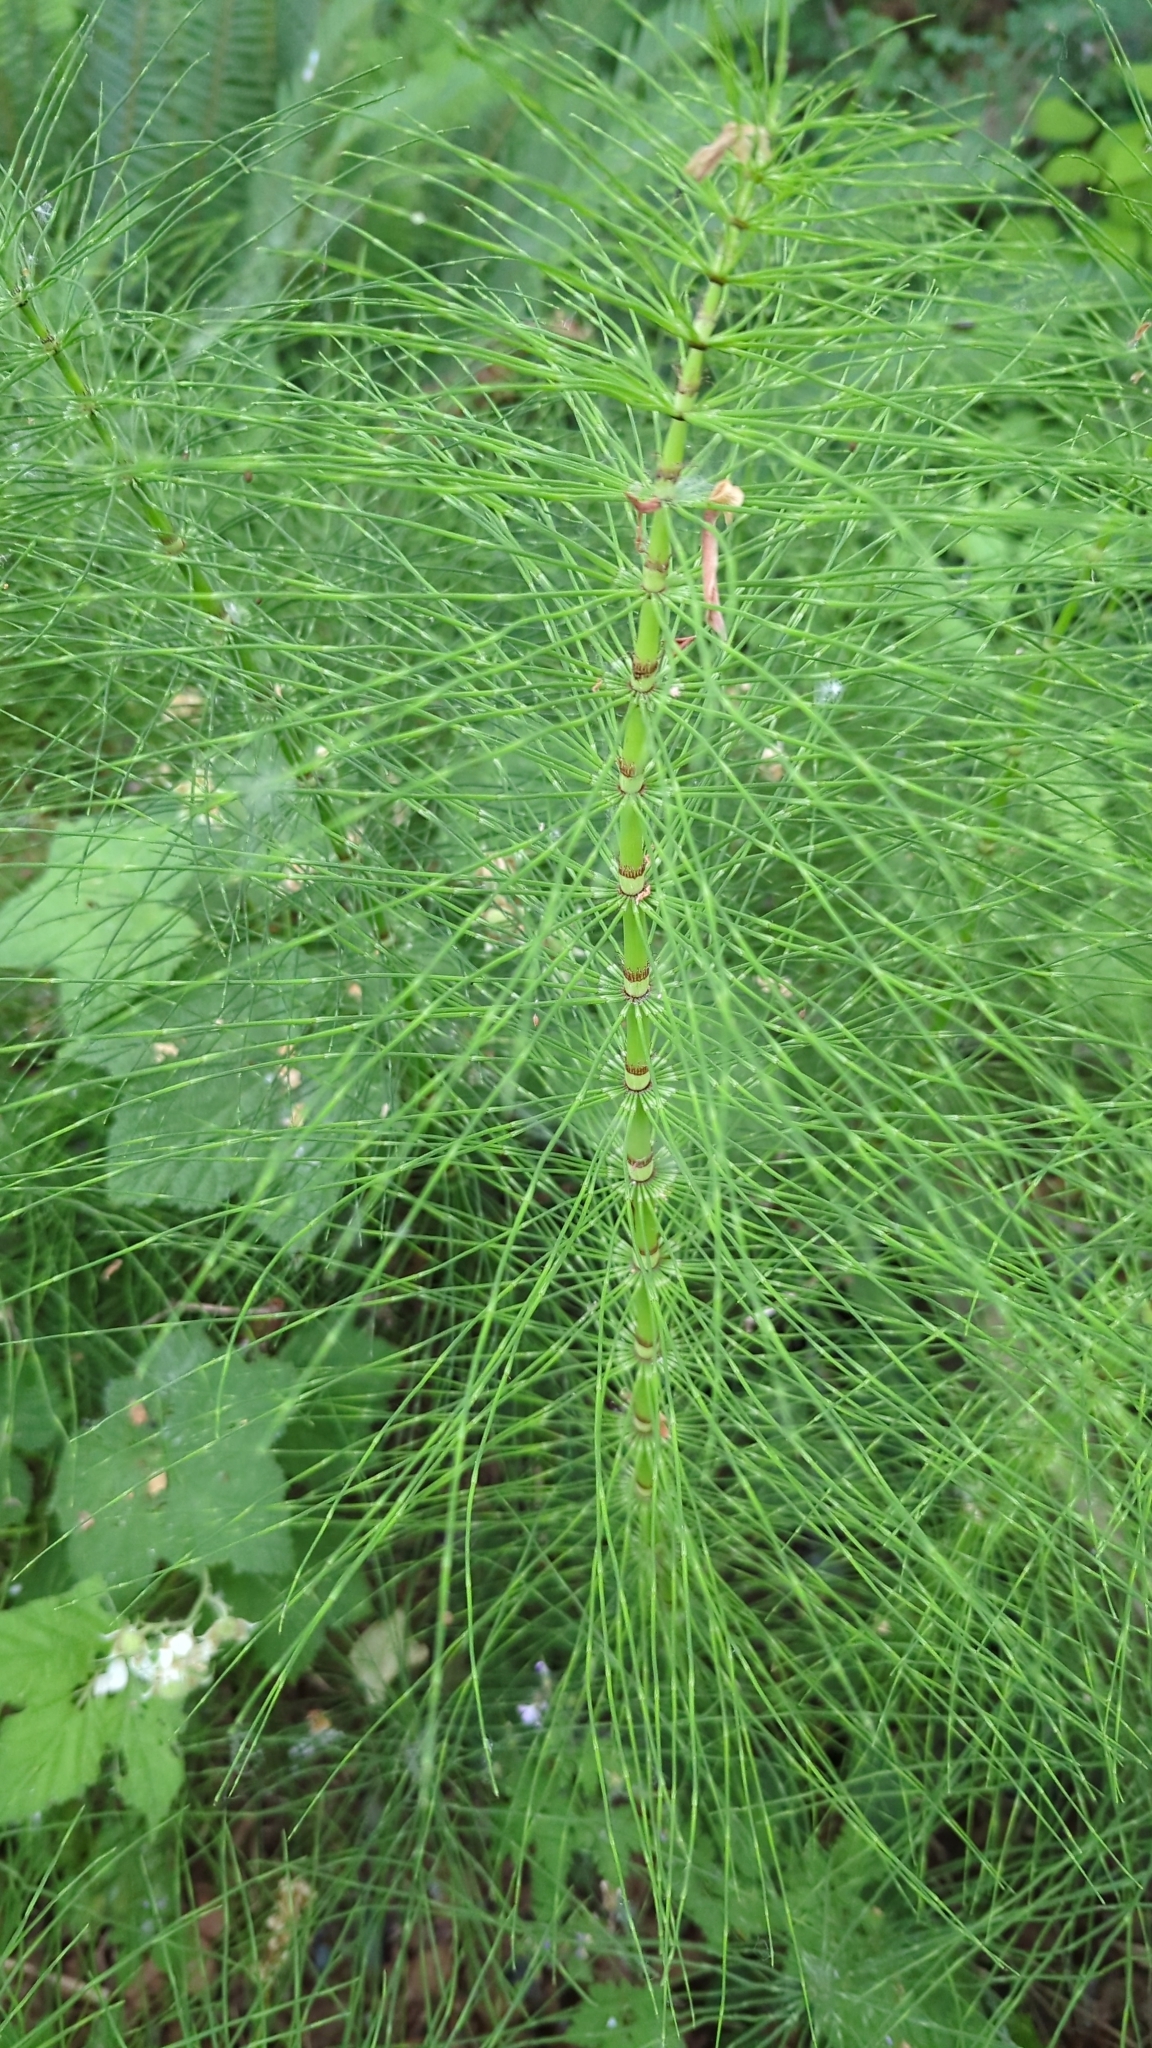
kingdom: Plantae
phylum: Tracheophyta
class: Polypodiopsida
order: Equisetales
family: Equisetaceae
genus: Equisetum
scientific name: Equisetum telmateia
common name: Great horsetail
